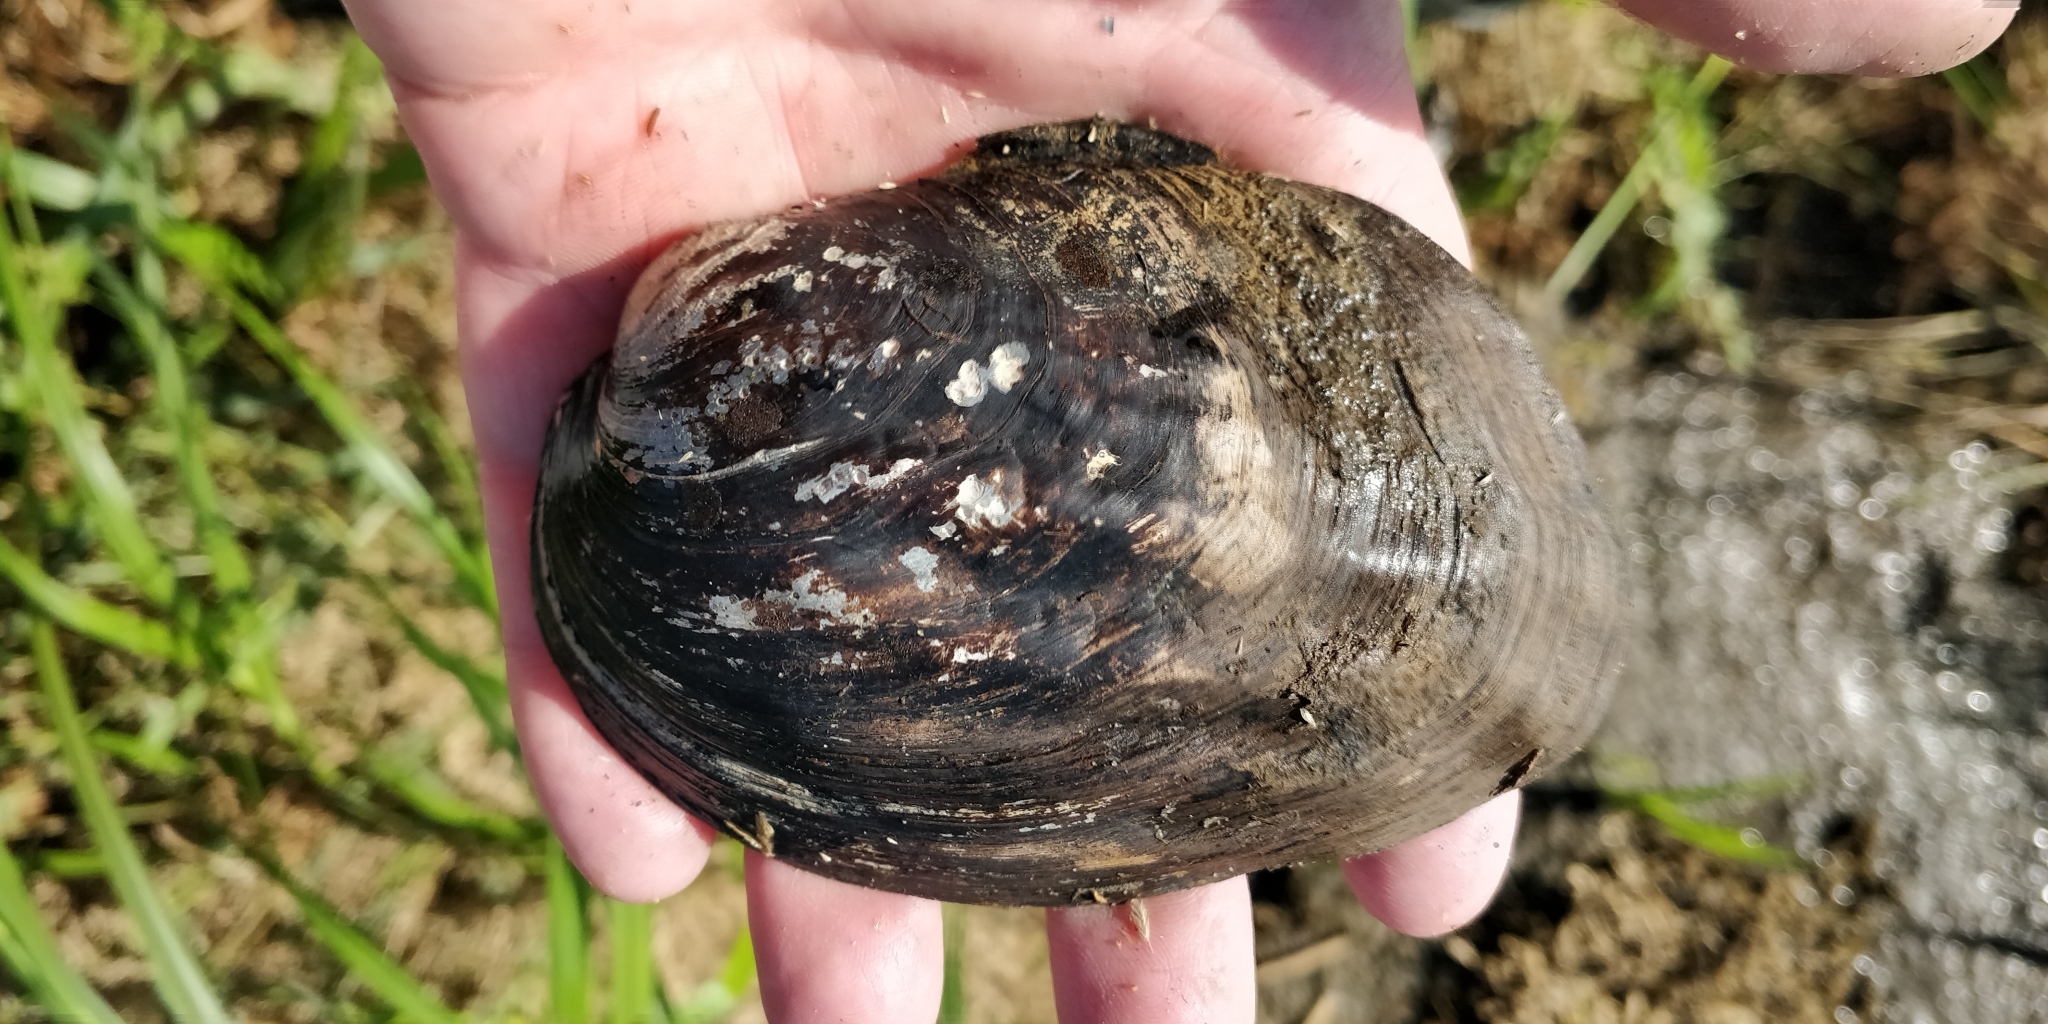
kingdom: Animalia
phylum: Mollusca
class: Bivalvia
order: Unionida
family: Unionidae
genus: Amblema
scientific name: Amblema plicata
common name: Threeridge
